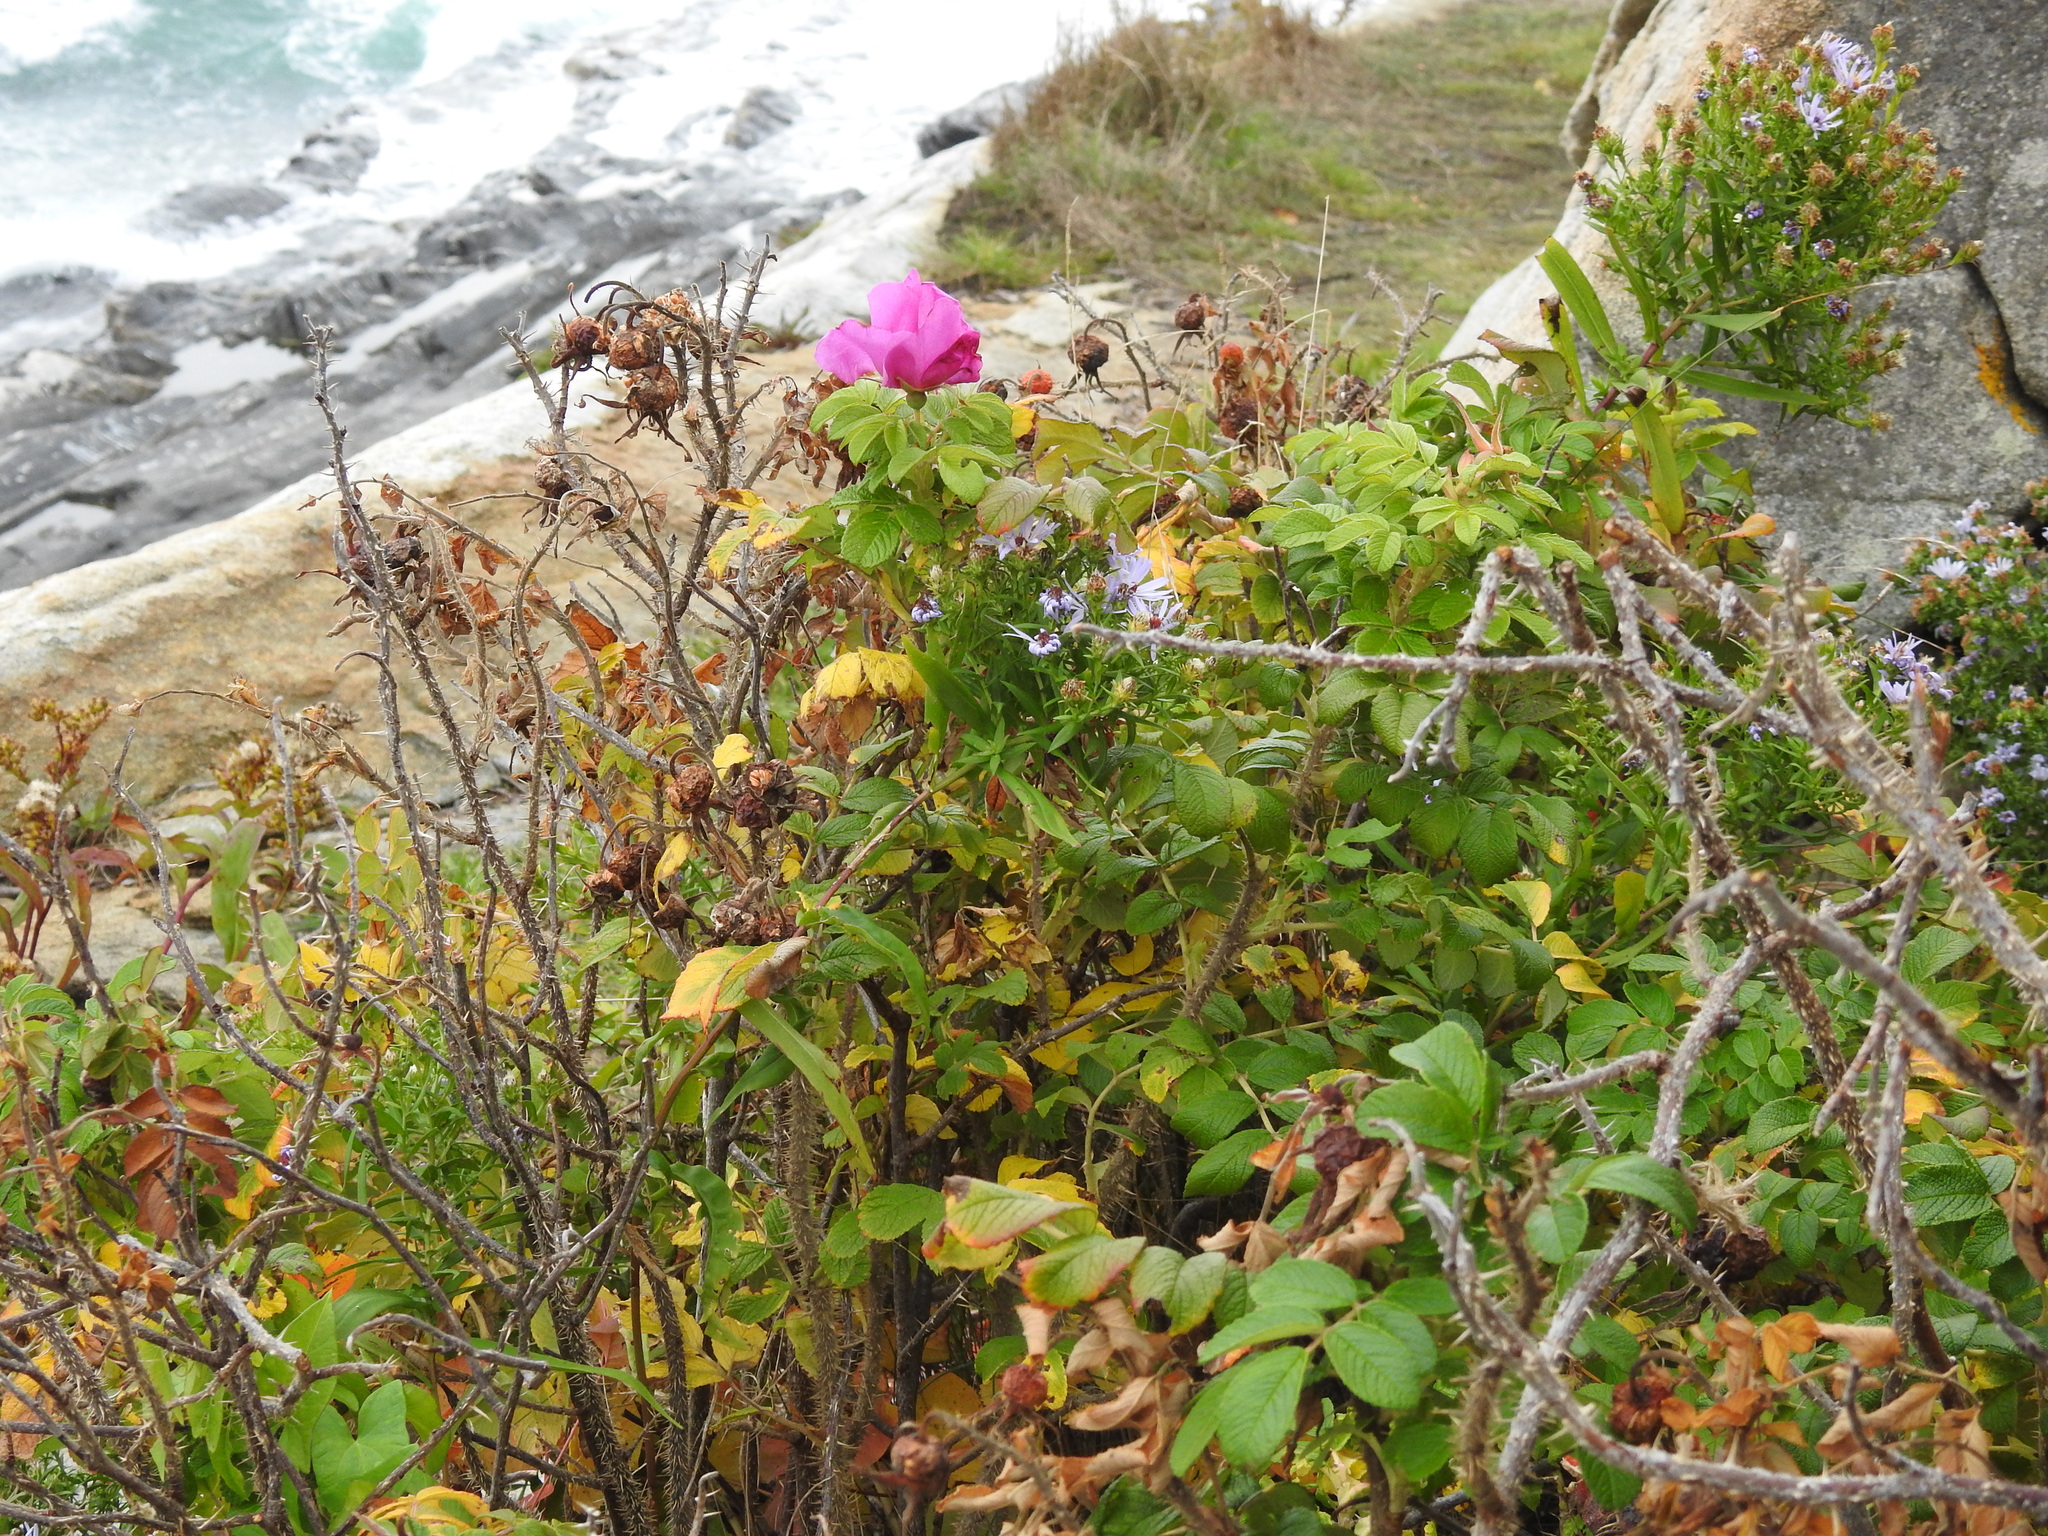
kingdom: Plantae
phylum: Tracheophyta
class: Magnoliopsida
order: Rosales
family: Rosaceae
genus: Rosa
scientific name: Rosa rugosa
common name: Japanese rose
